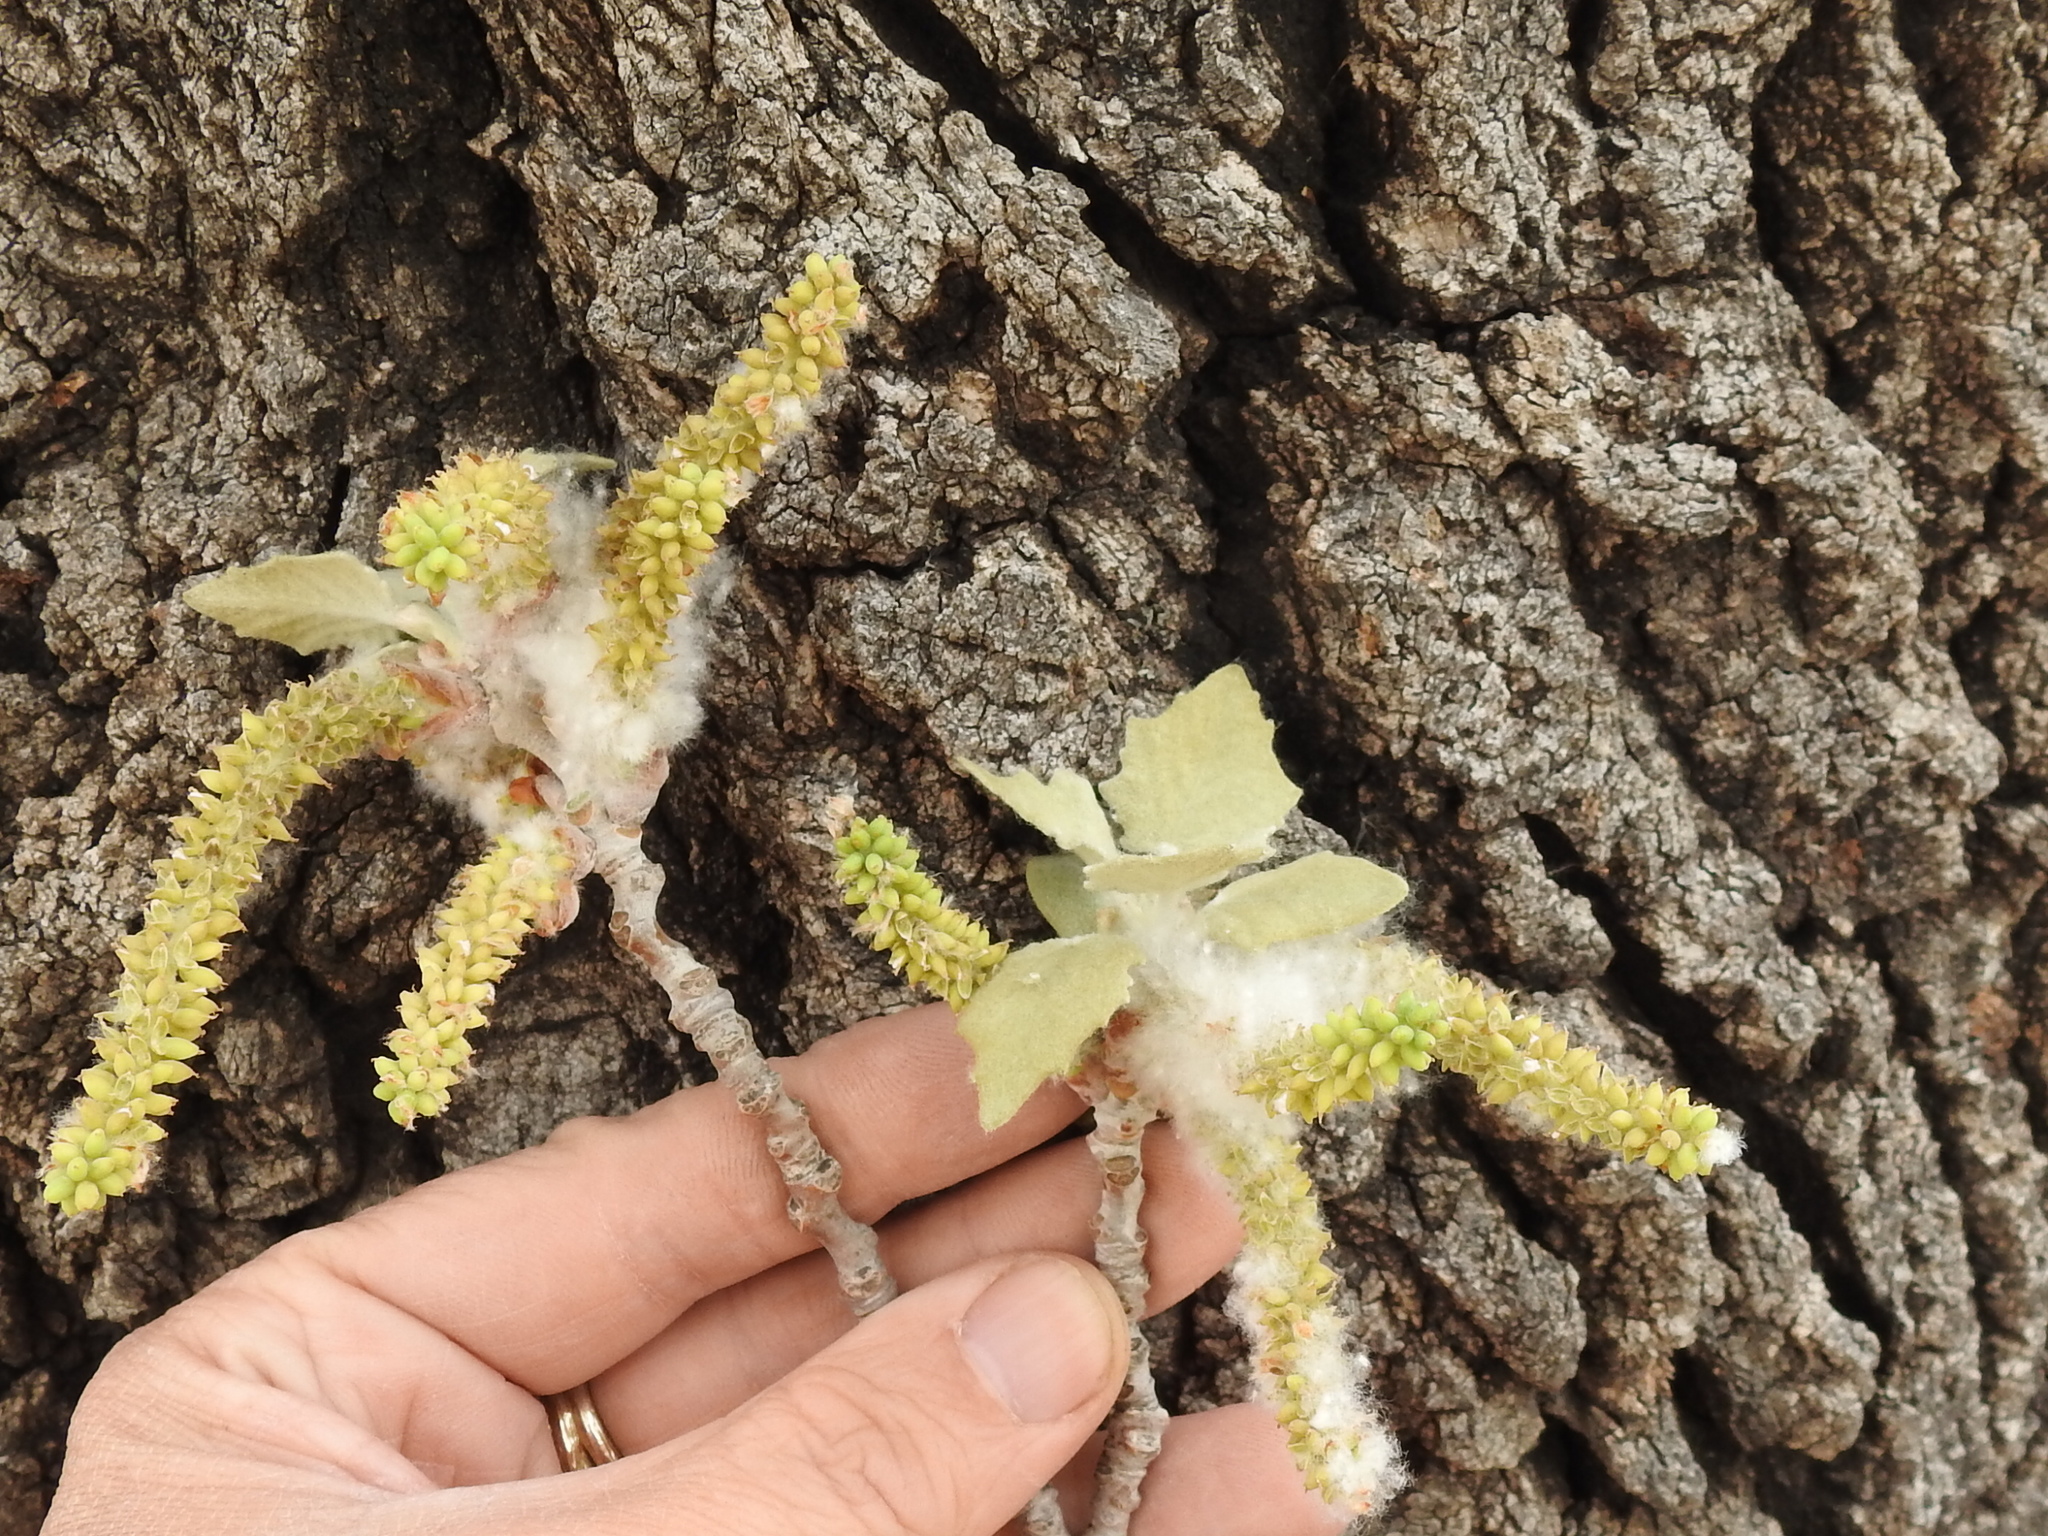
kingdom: Plantae
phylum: Tracheophyta
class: Magnoliopsida
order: Malpighiales
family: Salicaceae
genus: Populus
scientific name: Populus alba
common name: White poplar
